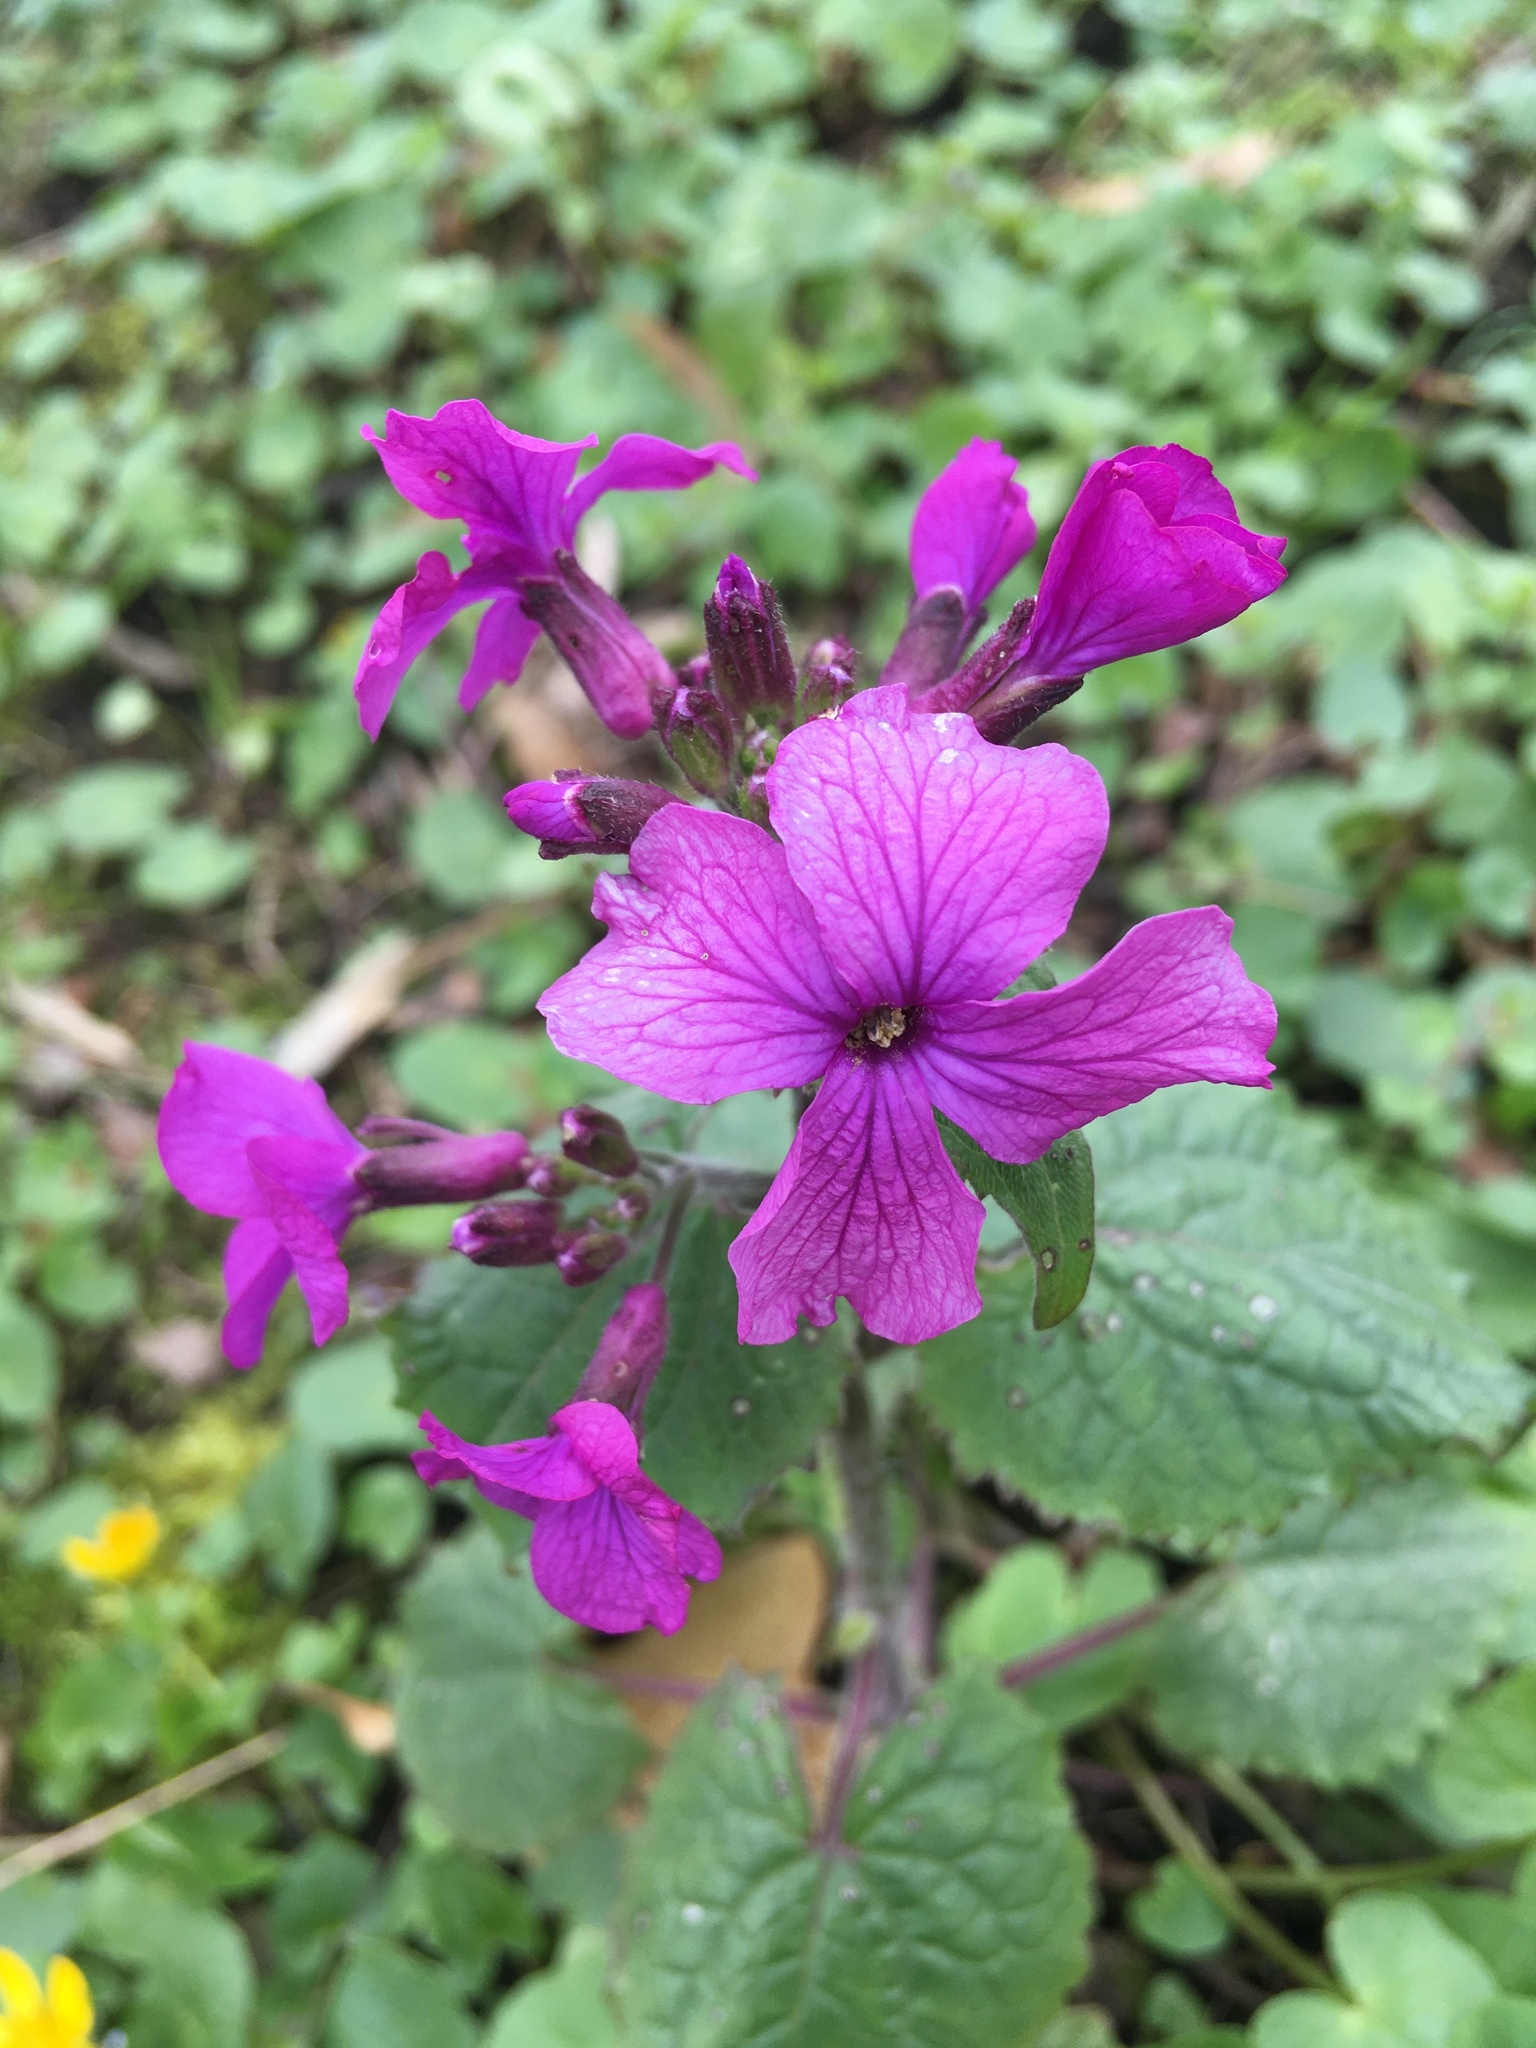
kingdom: Plantae
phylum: Tracheophyta
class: Magnoliopsida
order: Brassicales
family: Brassicaceae
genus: Lunaria
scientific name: Lunaria annua
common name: Honesty
